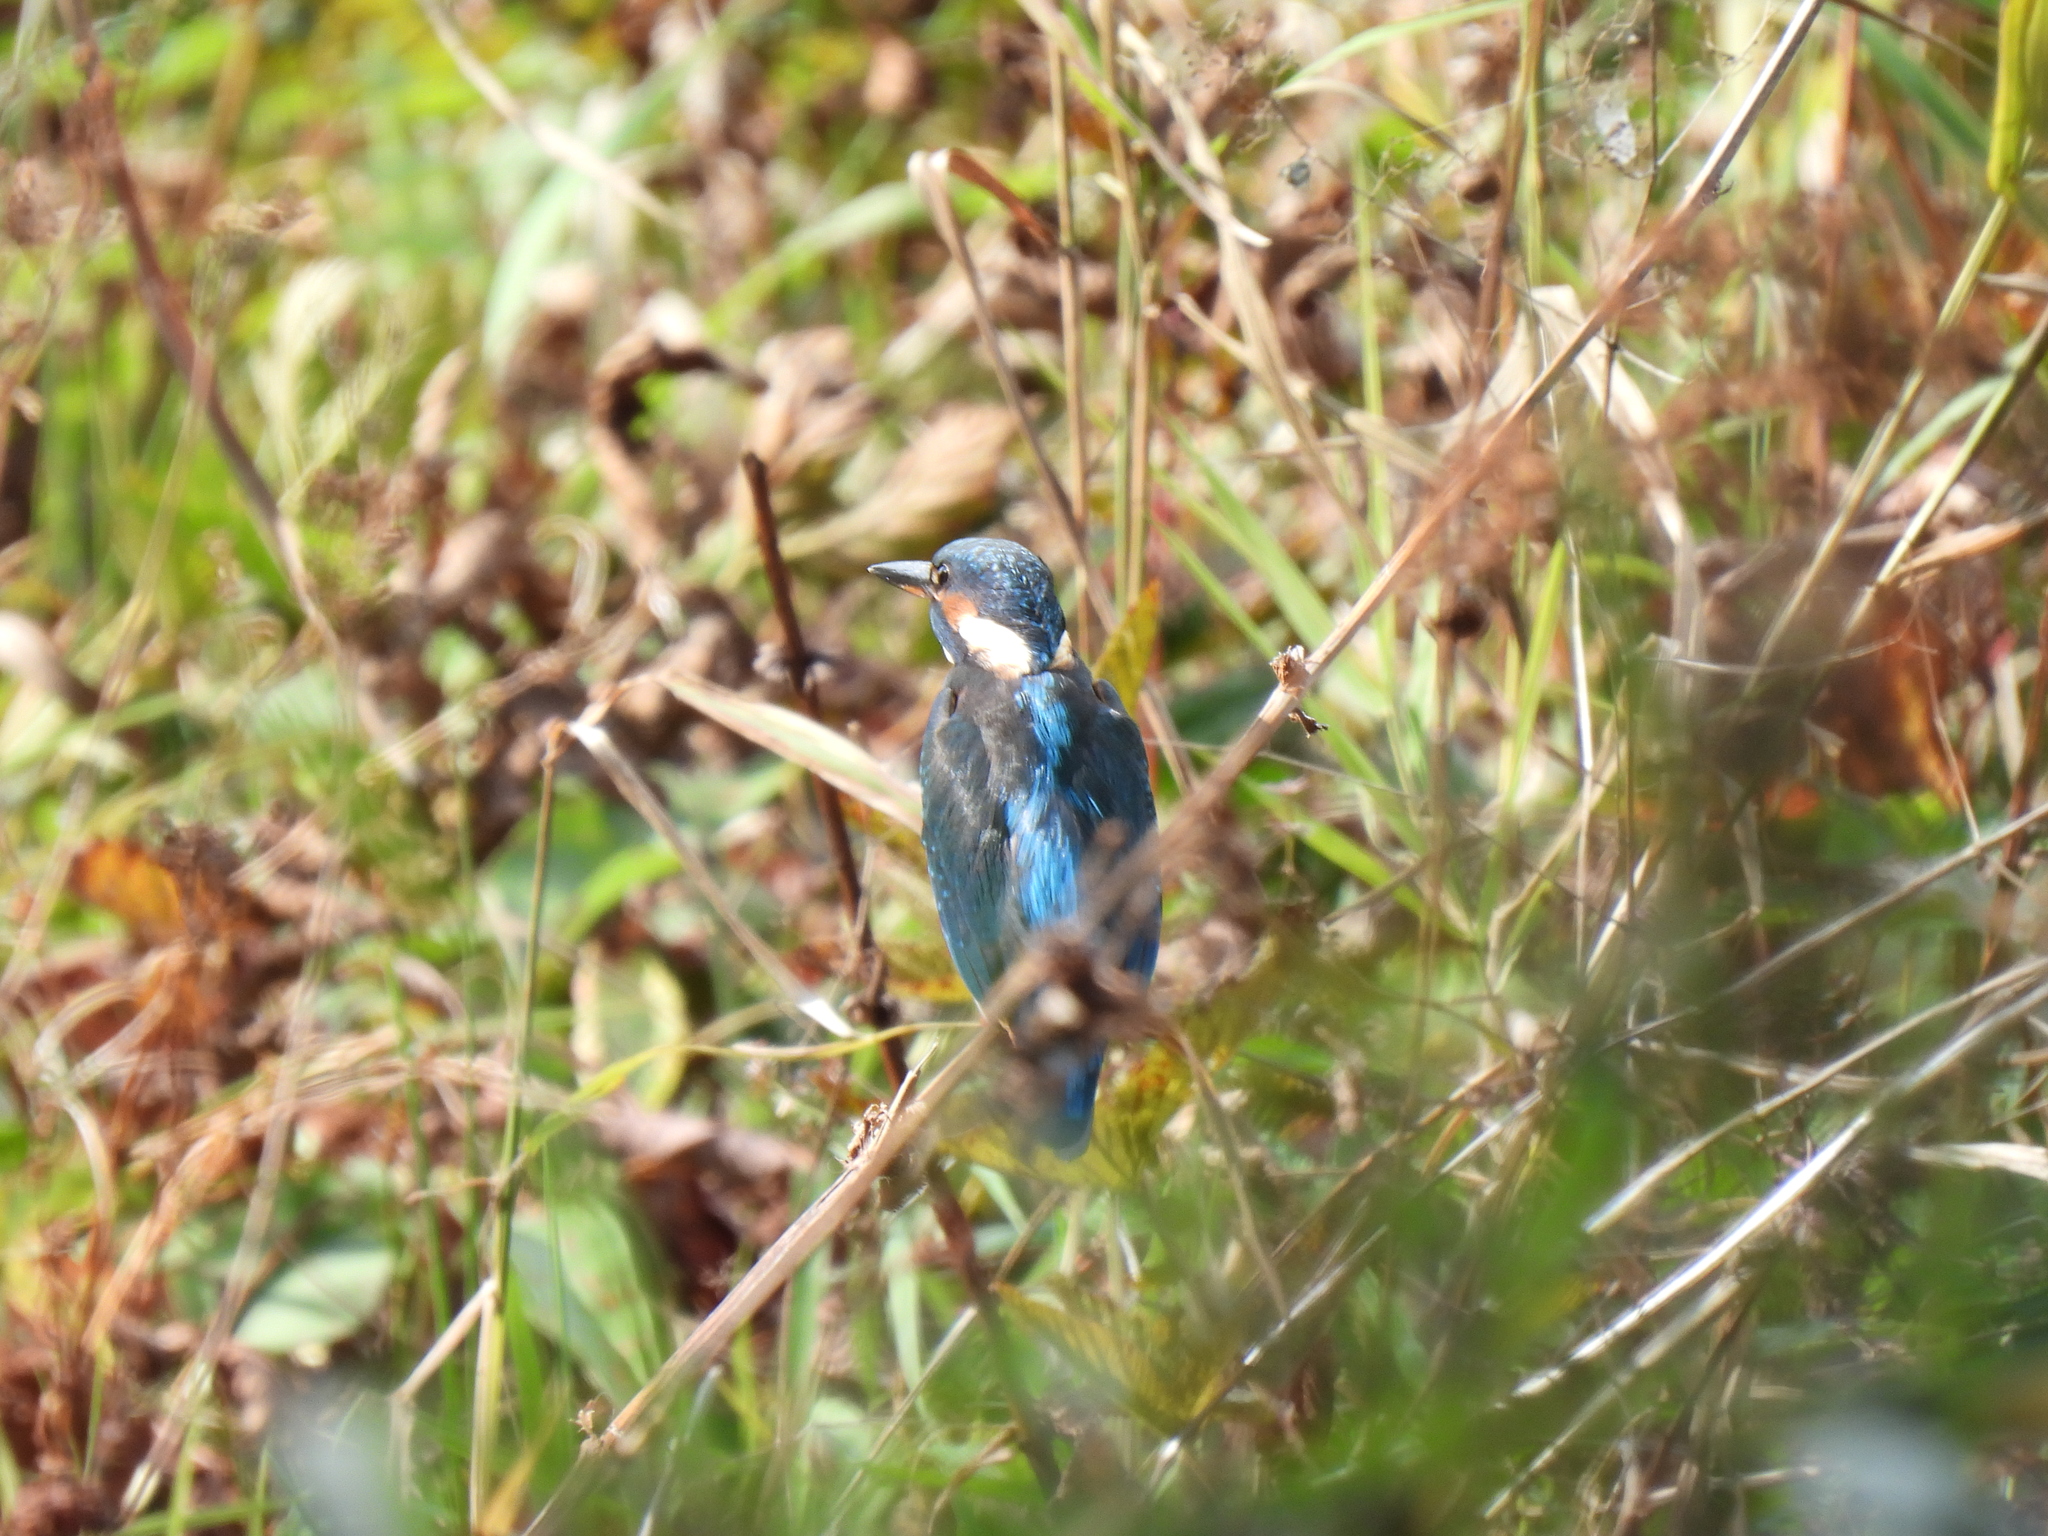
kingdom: Animalia
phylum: Chordata
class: Aves
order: Coraciiformes
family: Alcedinidae
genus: Alcedo
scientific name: Alcedo atthis
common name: Common kingfisher
